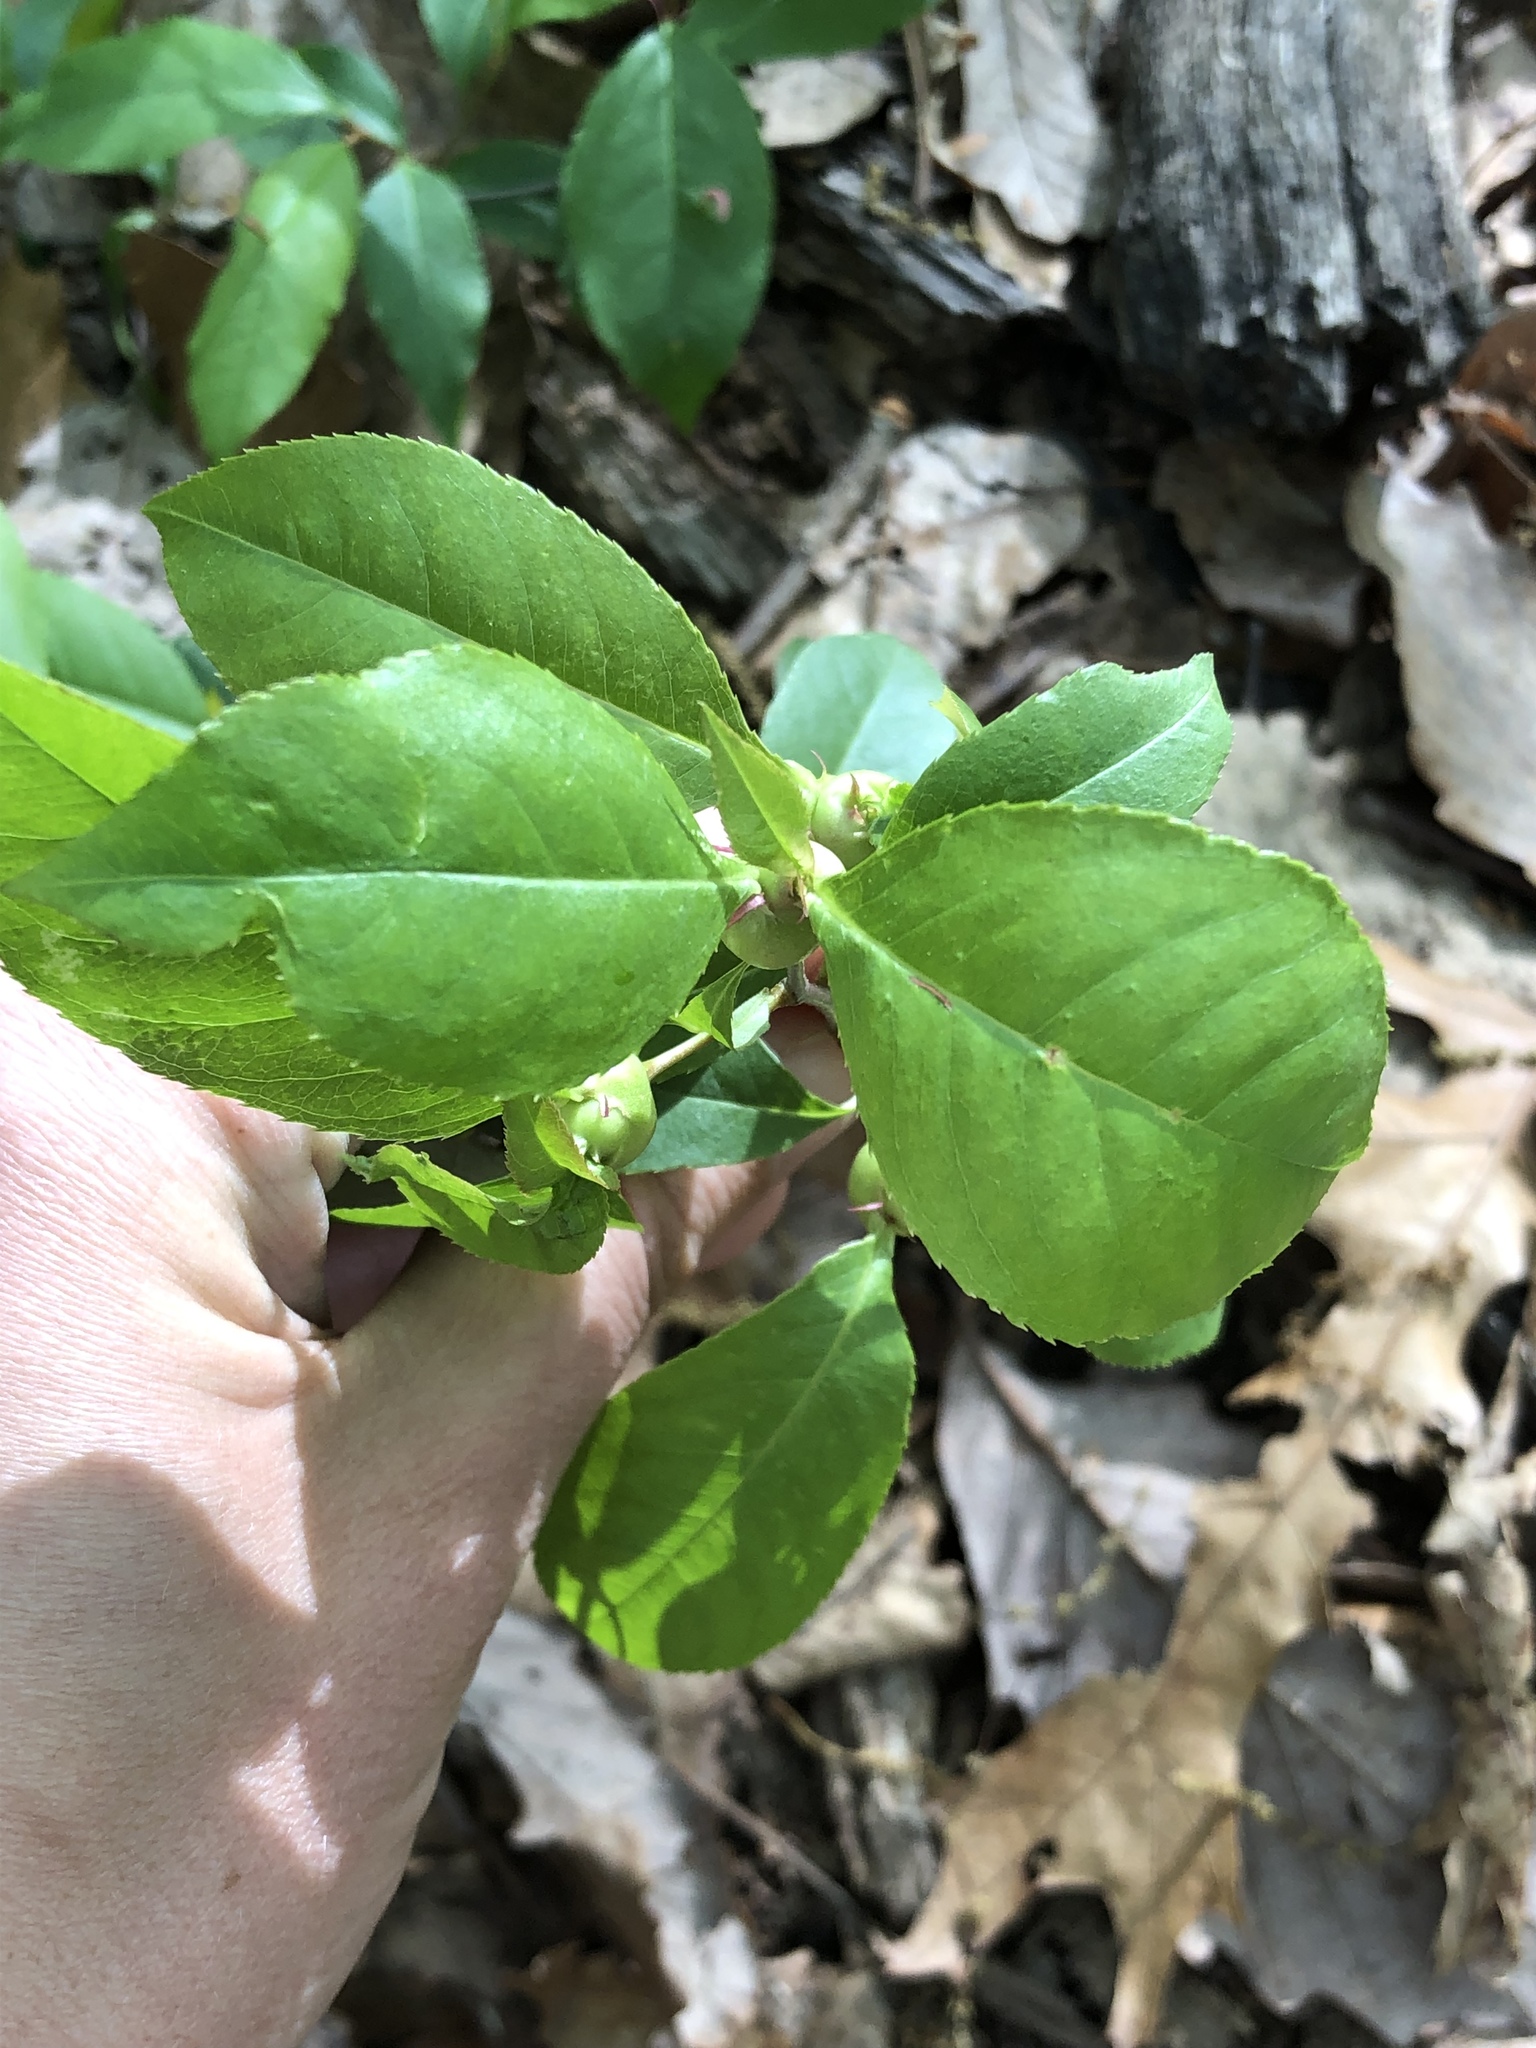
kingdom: Animalia
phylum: Arthropoda
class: Insecta
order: Diptera
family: Cecidomyiidae
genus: Contarinia
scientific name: Contarinia cerasiserotinae
